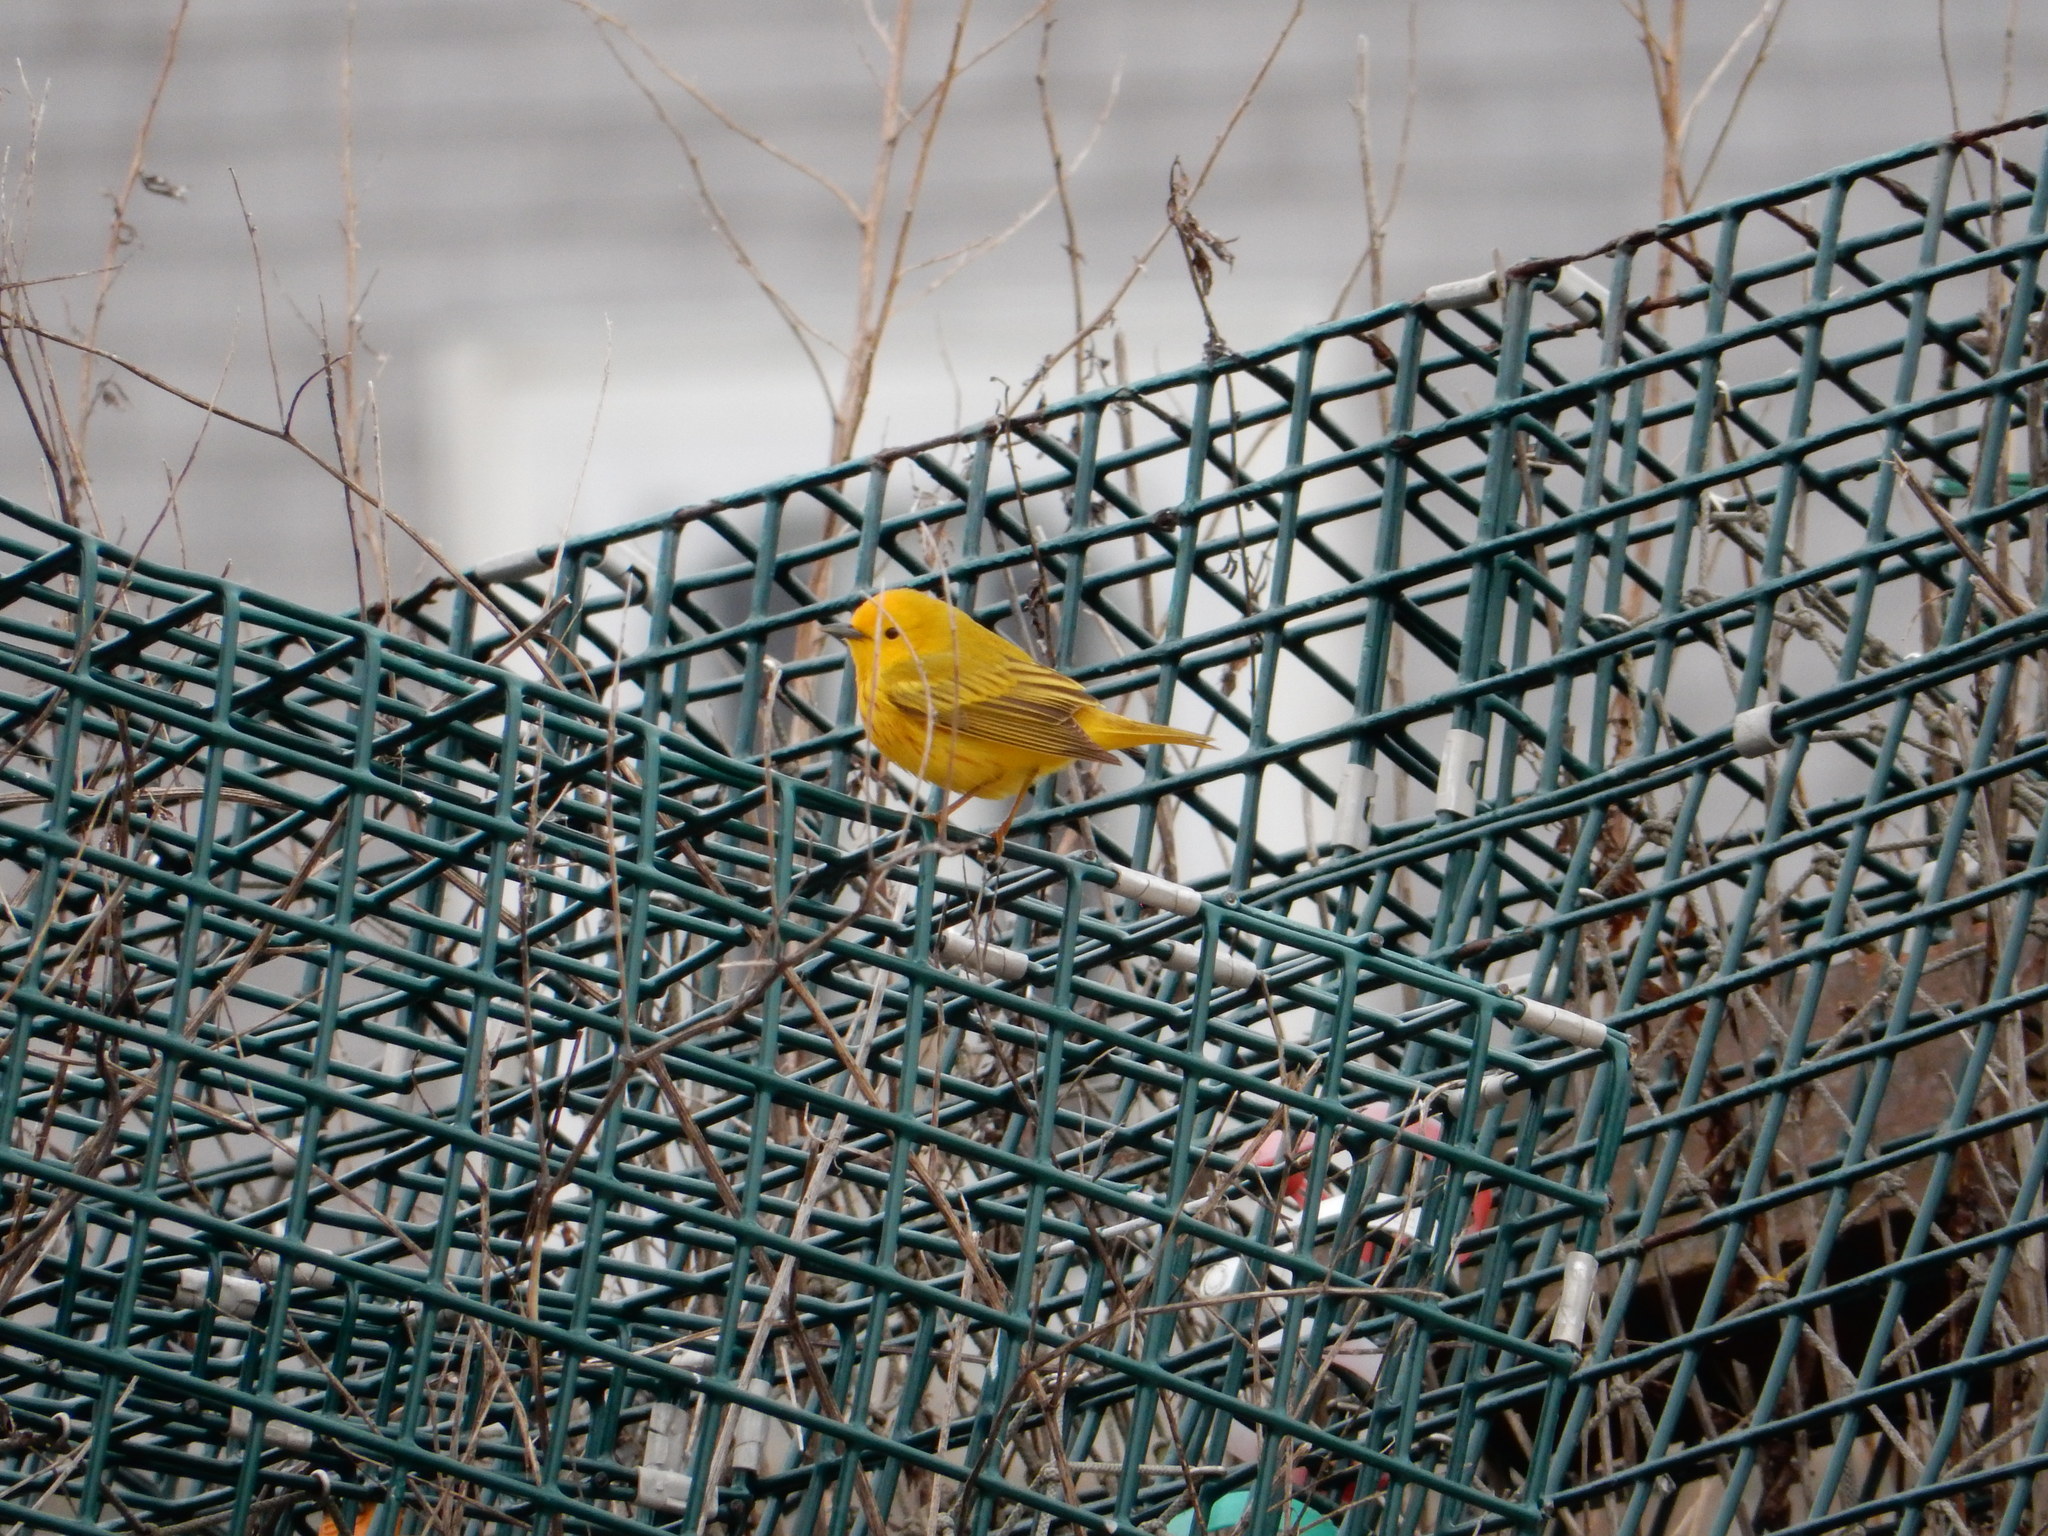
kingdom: Animalia
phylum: Chordata
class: Aves
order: Passeriformes
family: Parulidae
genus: Setophaga
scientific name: Setophaga petechia
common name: Yellow warbler
